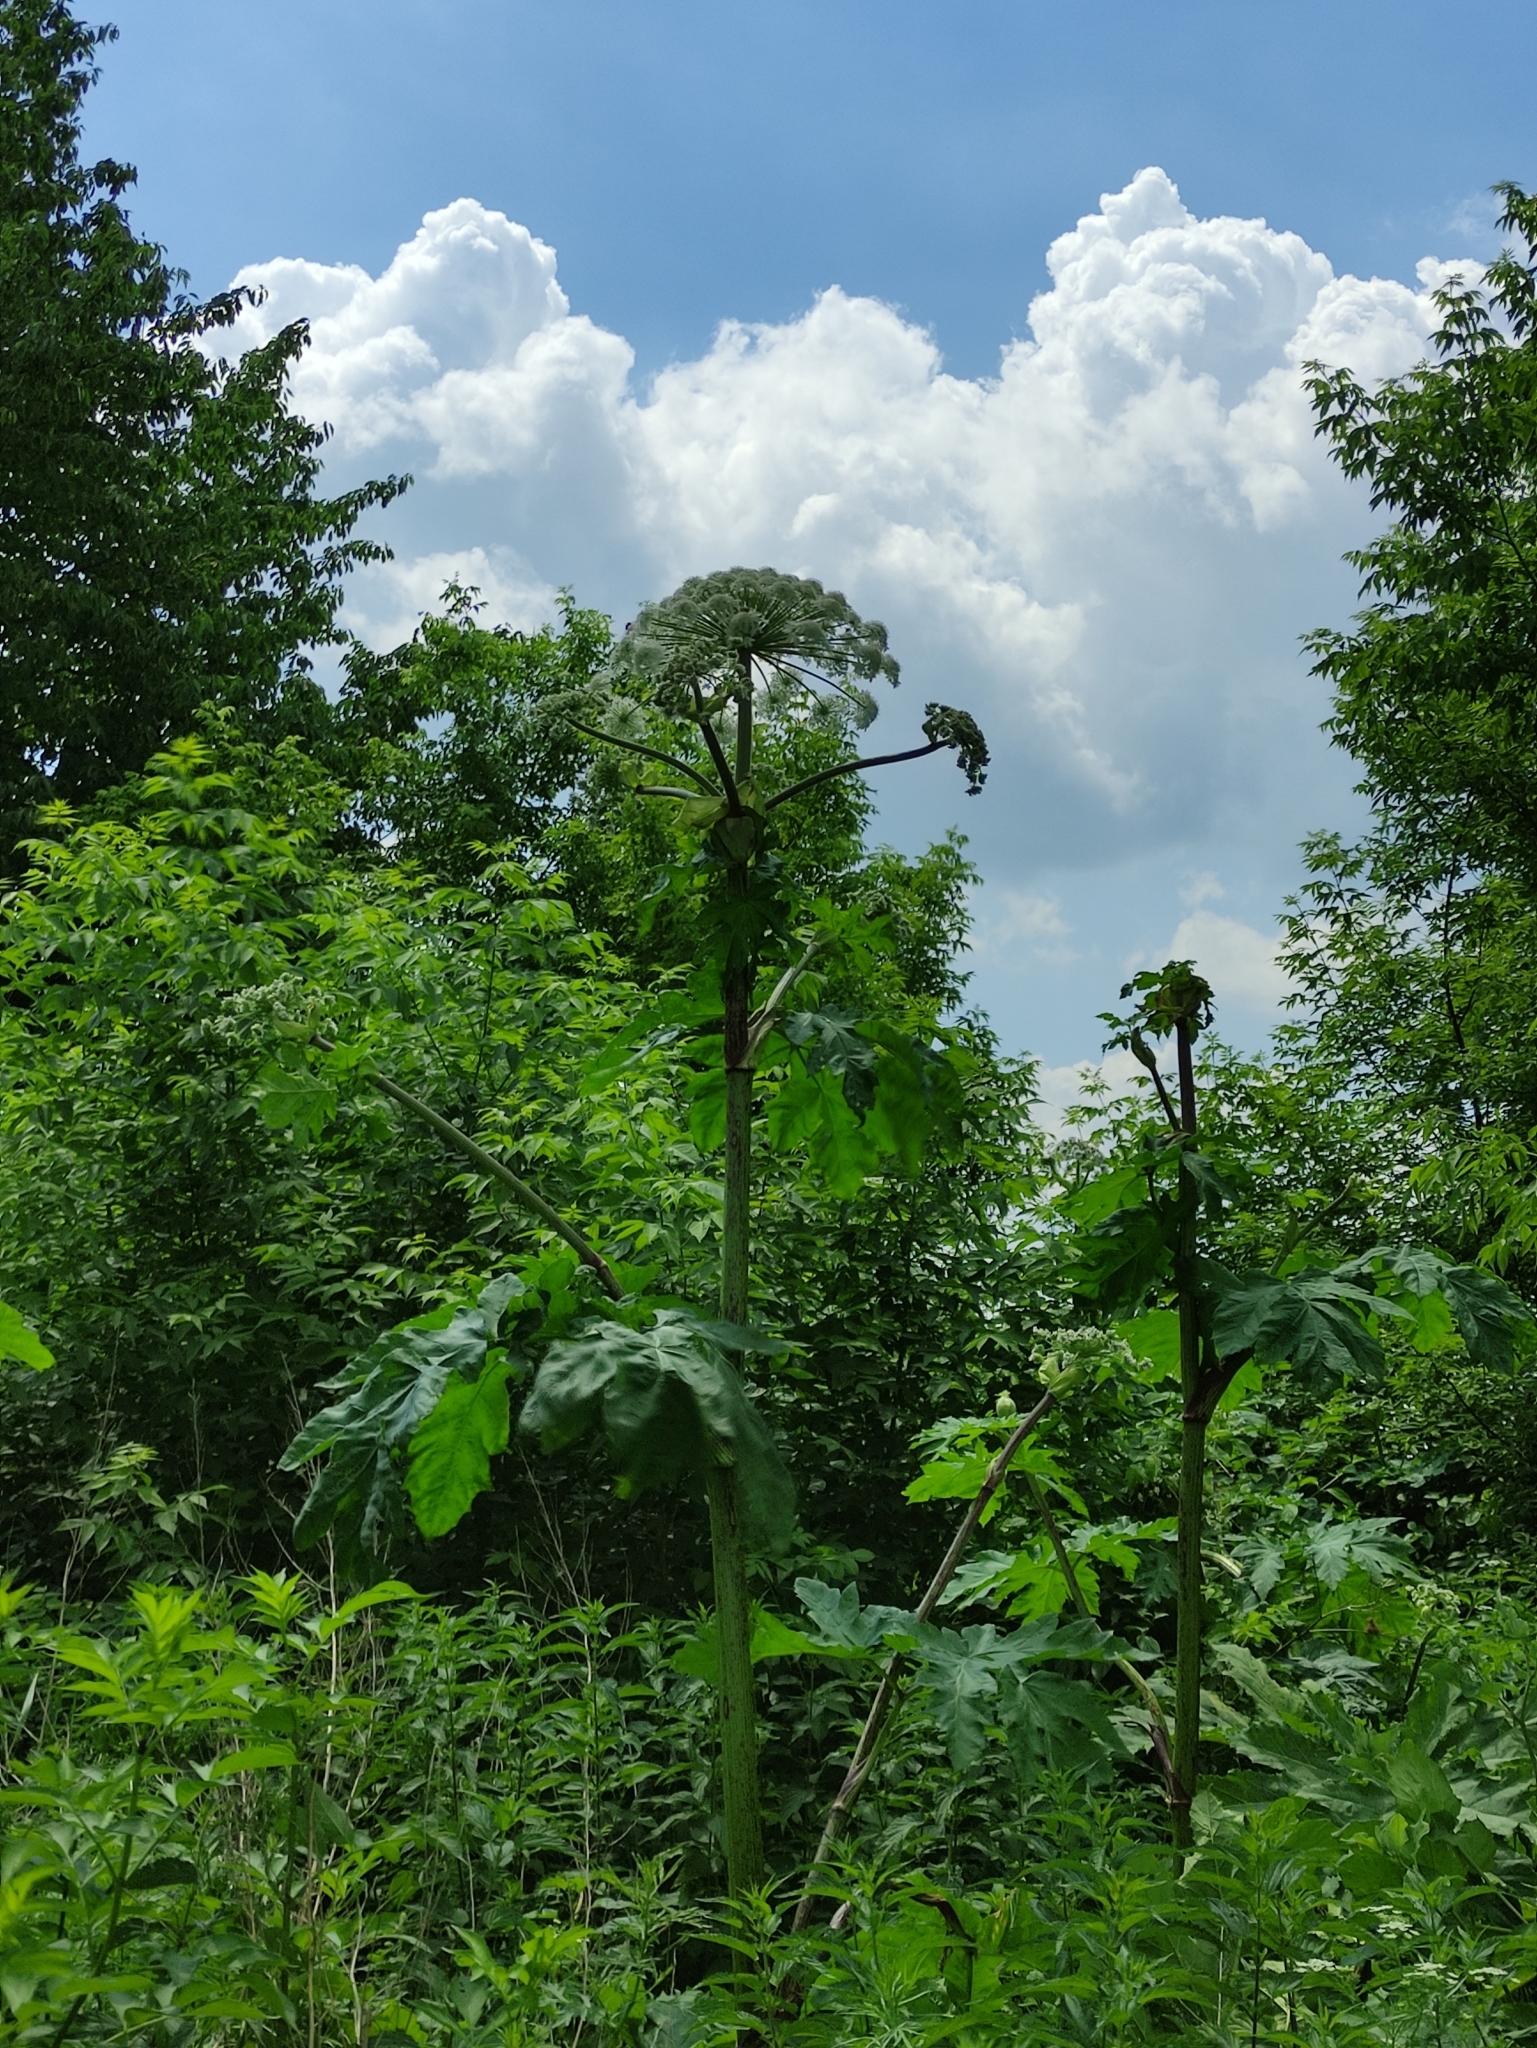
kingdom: Plantae
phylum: Tracheophyta
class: Magnoliopsida
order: Apiales
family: Apiaceae
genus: Heracleum
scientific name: Heracleum sosnowskyi
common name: Sosnowsky's hogweed
